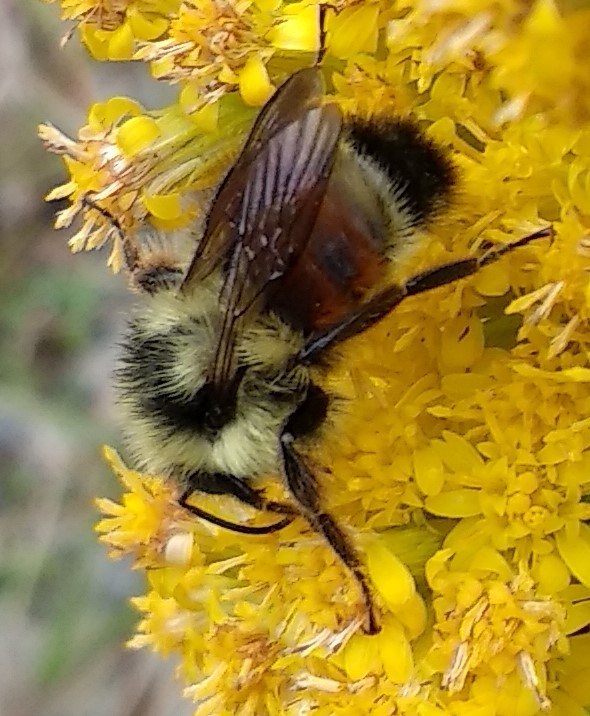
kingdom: Animalia
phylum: Arthropoda
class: Insecta
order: Hymenoptera
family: Apidae
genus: Bombus
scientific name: Bombus ternarius
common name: Tri-colored bumble bee
